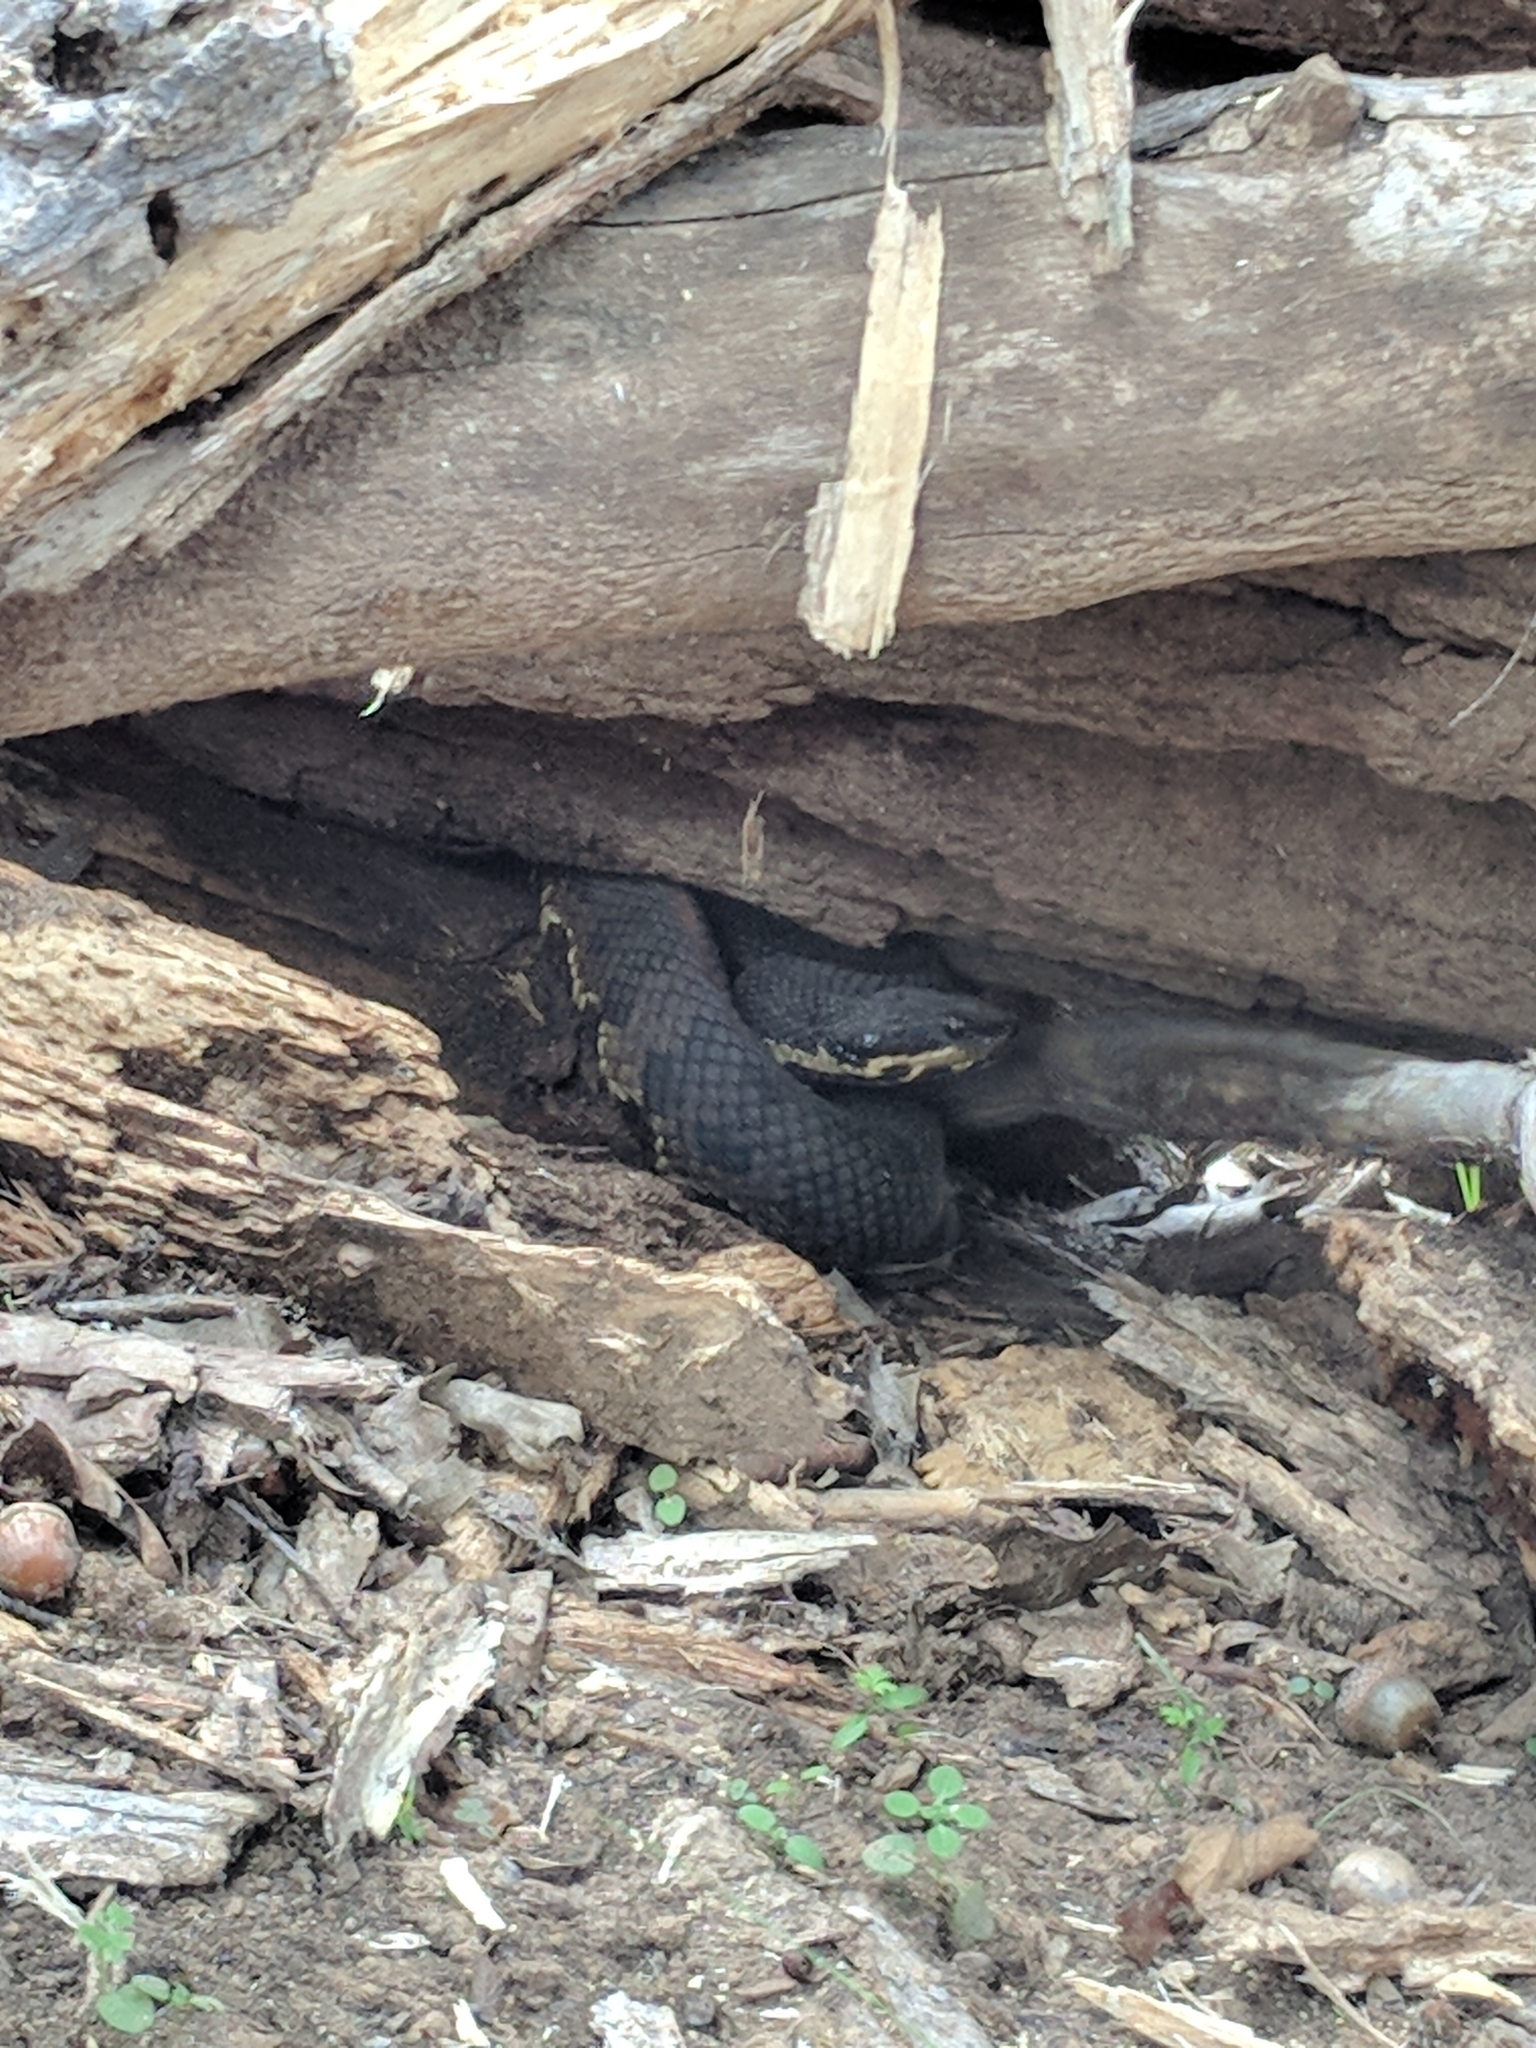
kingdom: Animalia
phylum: Chordata
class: Squamata
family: Viperidae
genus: Agkistrodon
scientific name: Agkistrodon piscivorus
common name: Cottonmouth
